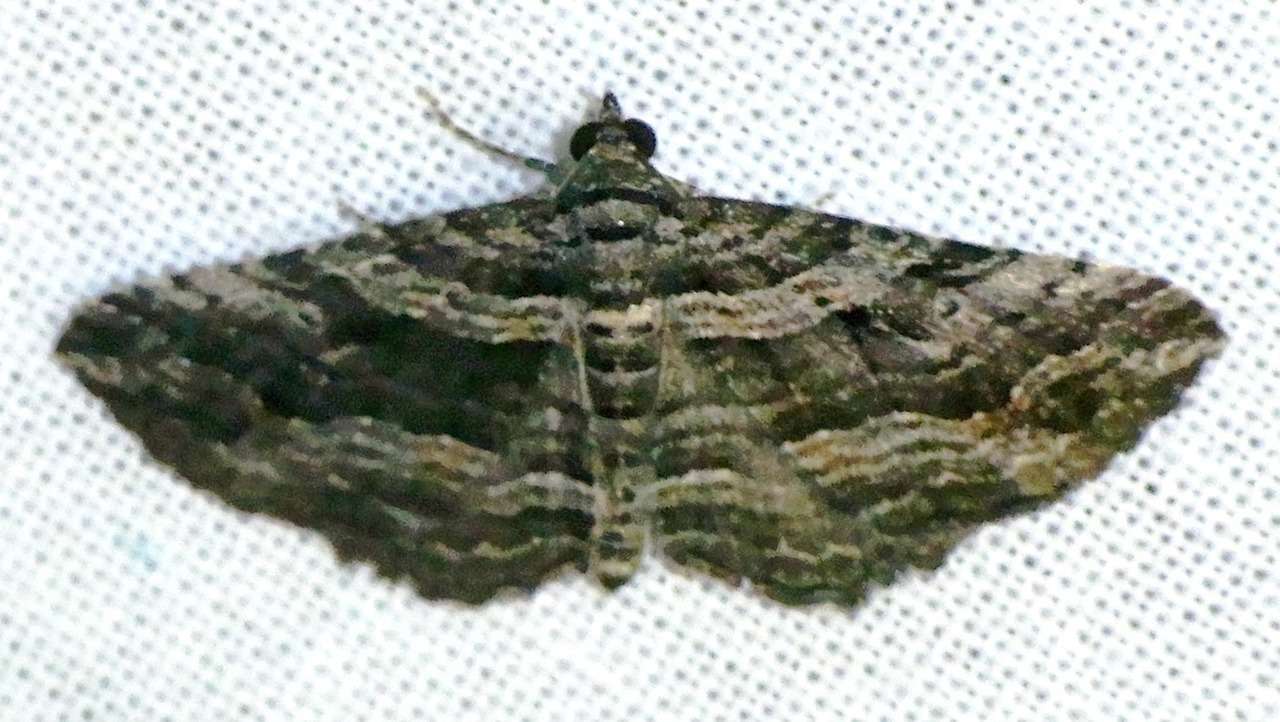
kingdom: Animalia
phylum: Arthropoda
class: Insecta
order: Lepidoptera
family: Geometridae
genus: Chrysolarentia
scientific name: Chrysolarentia severata
